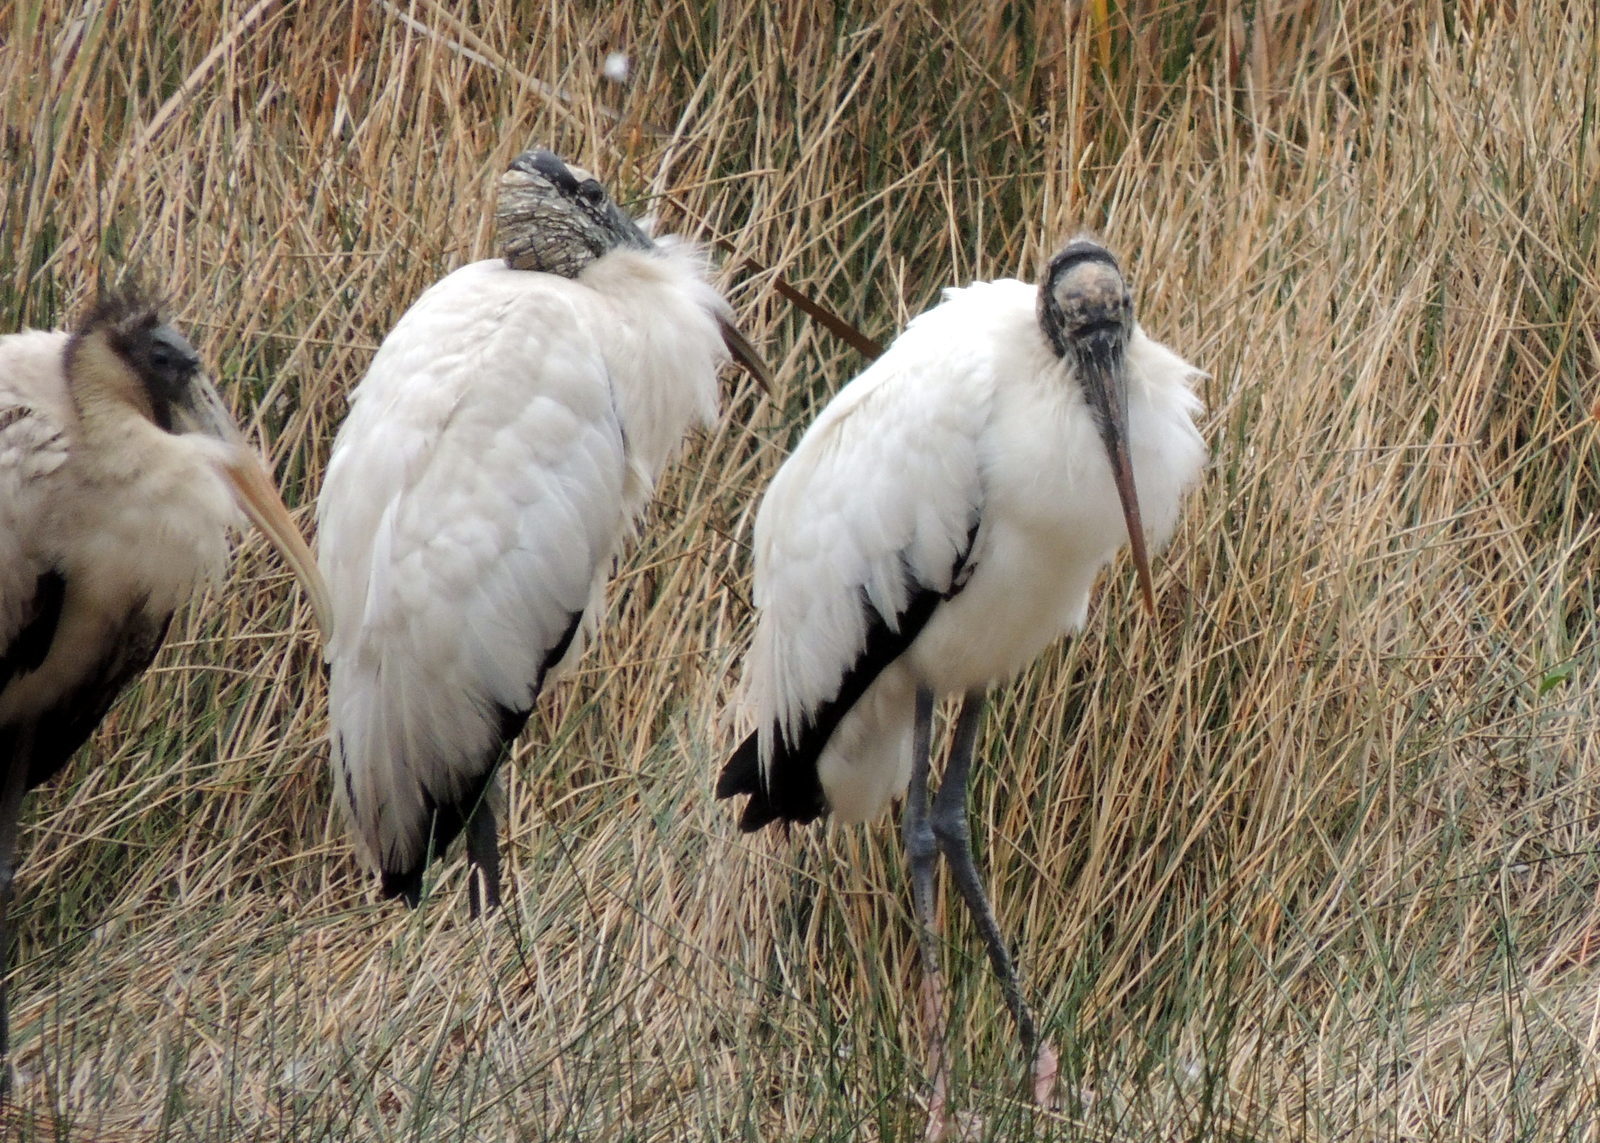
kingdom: Animalia
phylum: Chordata
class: Aves
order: Ciconiiformes
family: Ciconiidae
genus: Mycteria
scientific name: Mycteria americana
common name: Wood stork
